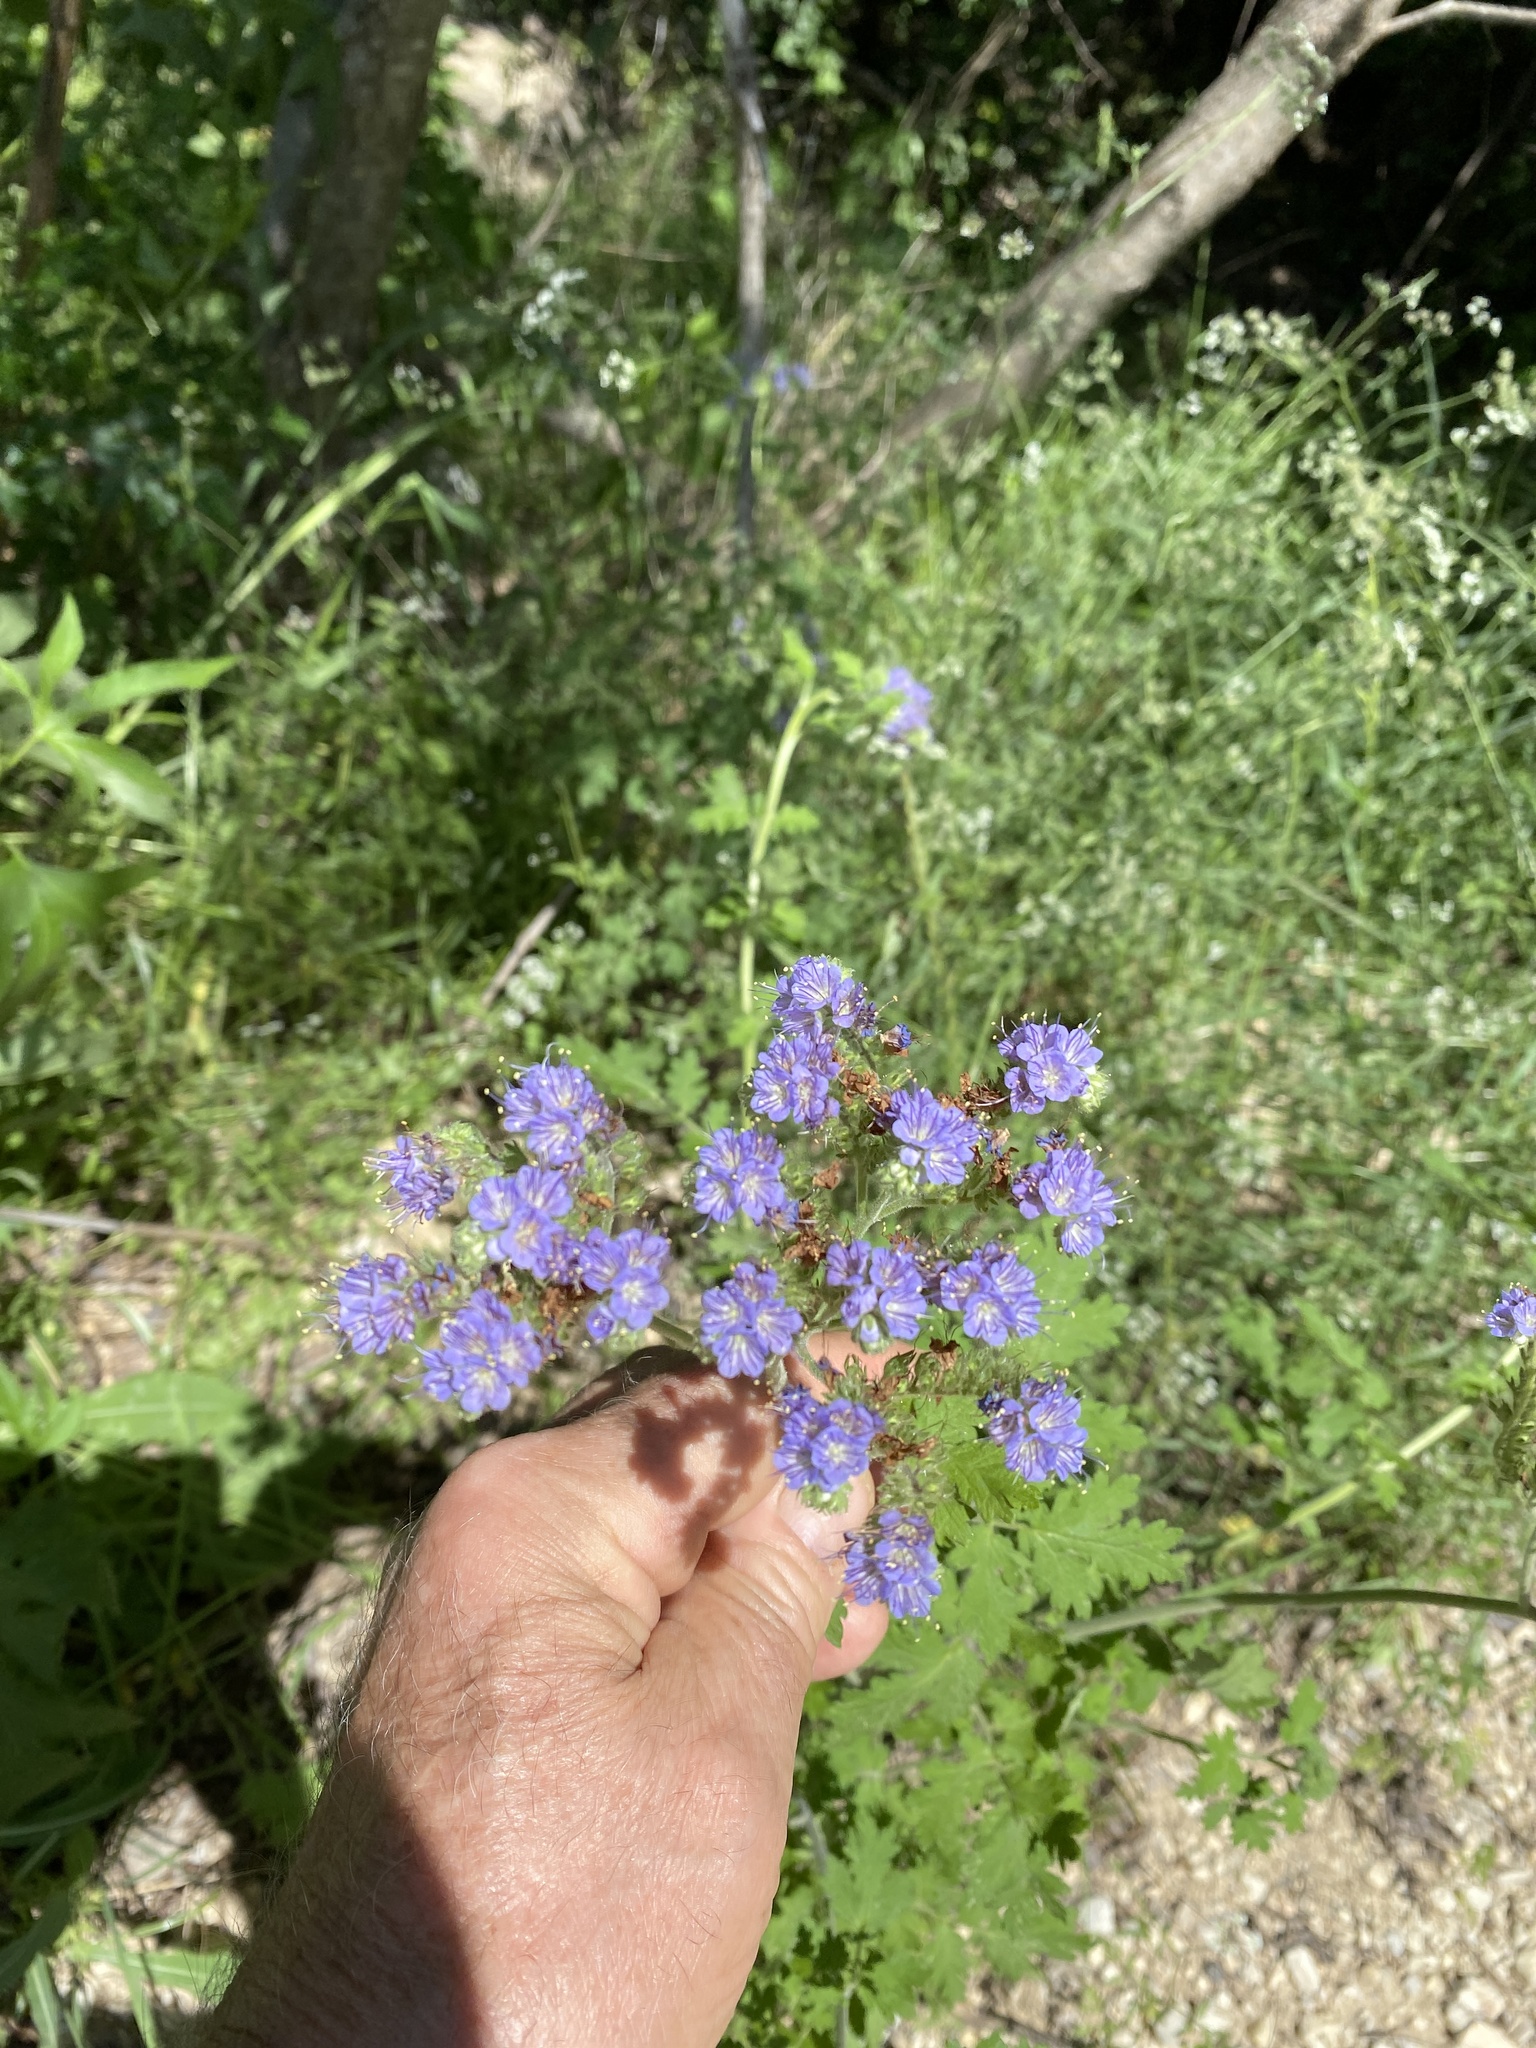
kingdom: Plantae
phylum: Tracheophyta
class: Magnoliopsida
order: Boraginales
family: Hydrophyllaceae
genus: Phacelia
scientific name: Phacelia congesta
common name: Blue curls
